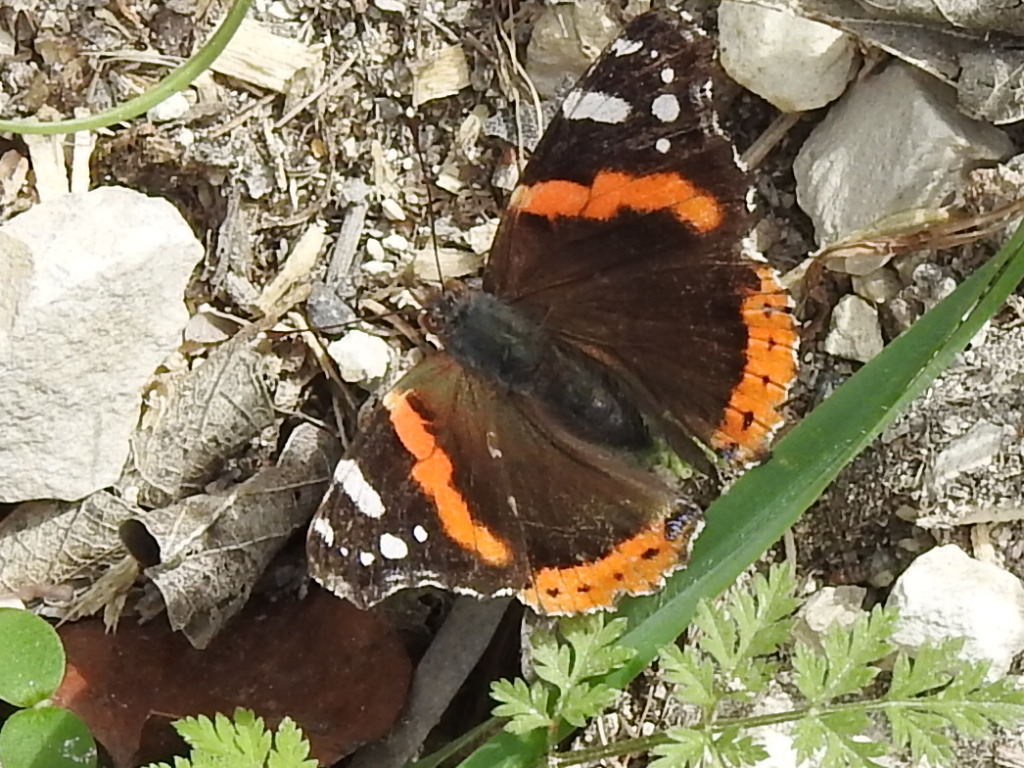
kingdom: Animalia
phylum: Arthropoda
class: Insecta
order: Lepidoptera
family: Nymphalidae
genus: Vanessa
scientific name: Vanessa atalanta
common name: Red admiral
